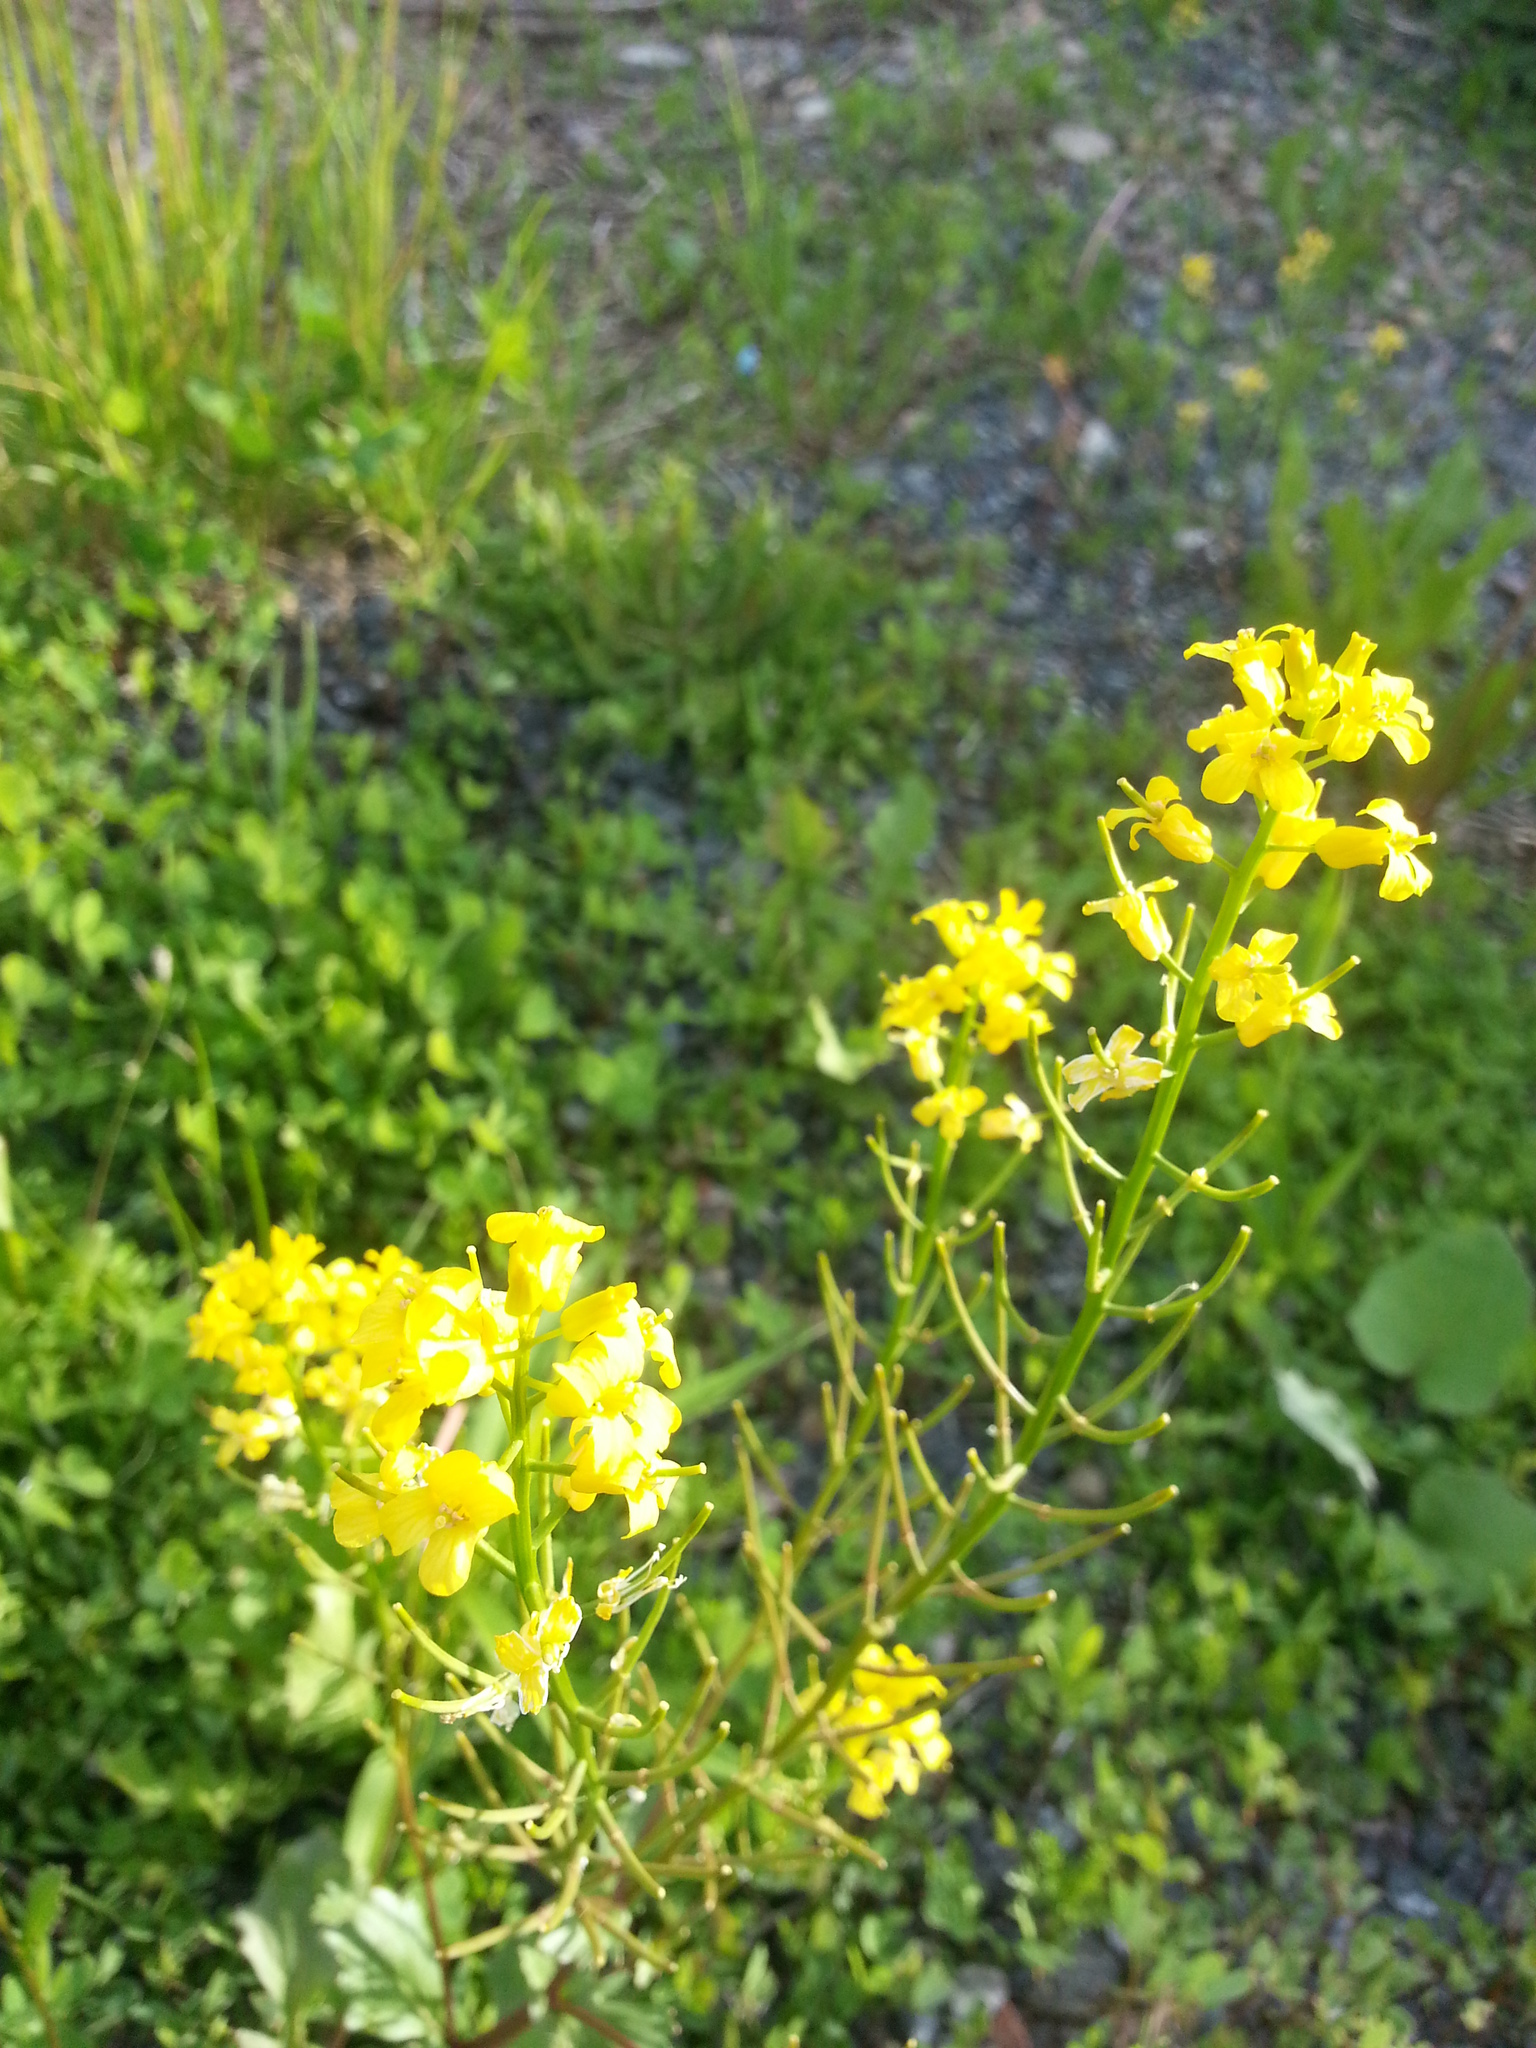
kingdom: Plantae
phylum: Tracheophyta
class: Magnoliopsida
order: Brassicales
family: Brassicaceae
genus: Barbarea
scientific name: Barbarea vulgaris
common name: Cressy-greens
